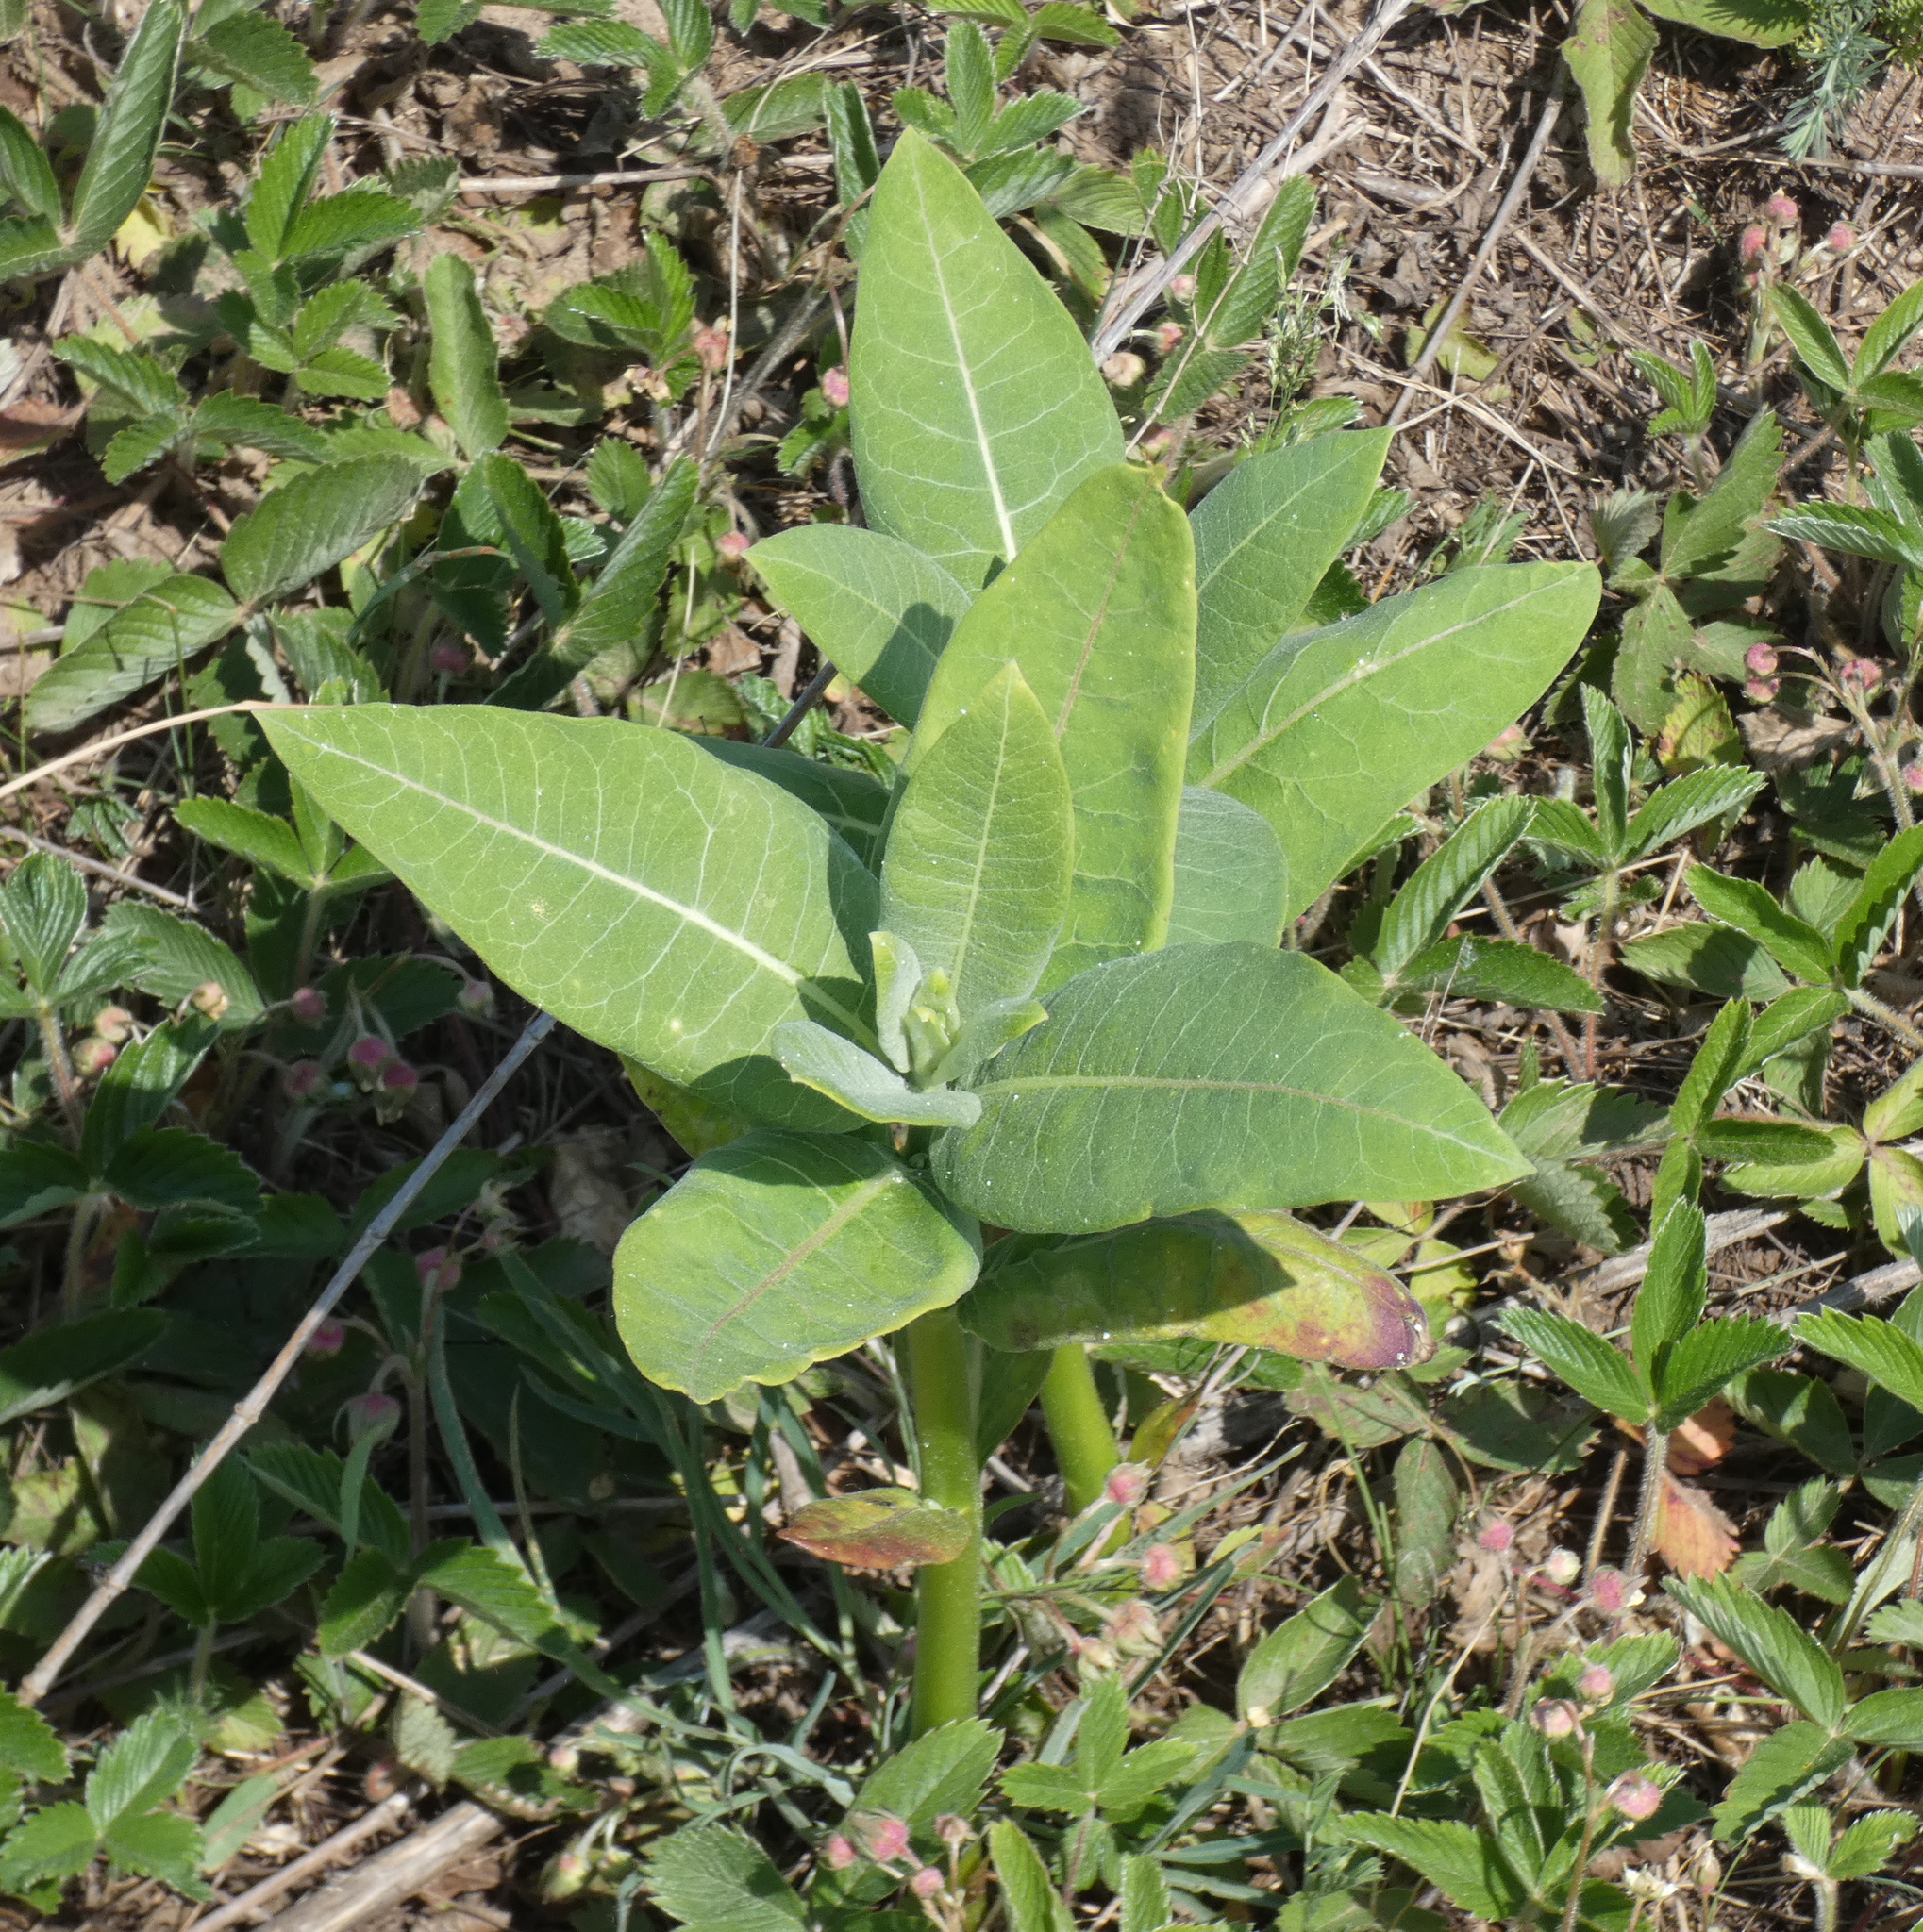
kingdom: Plantae
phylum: Tracheophyta
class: Magnoliopsida
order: Gentianales
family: Apocynaceae
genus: Asclepias
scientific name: Asclepias syriaca
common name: Common milkweed
